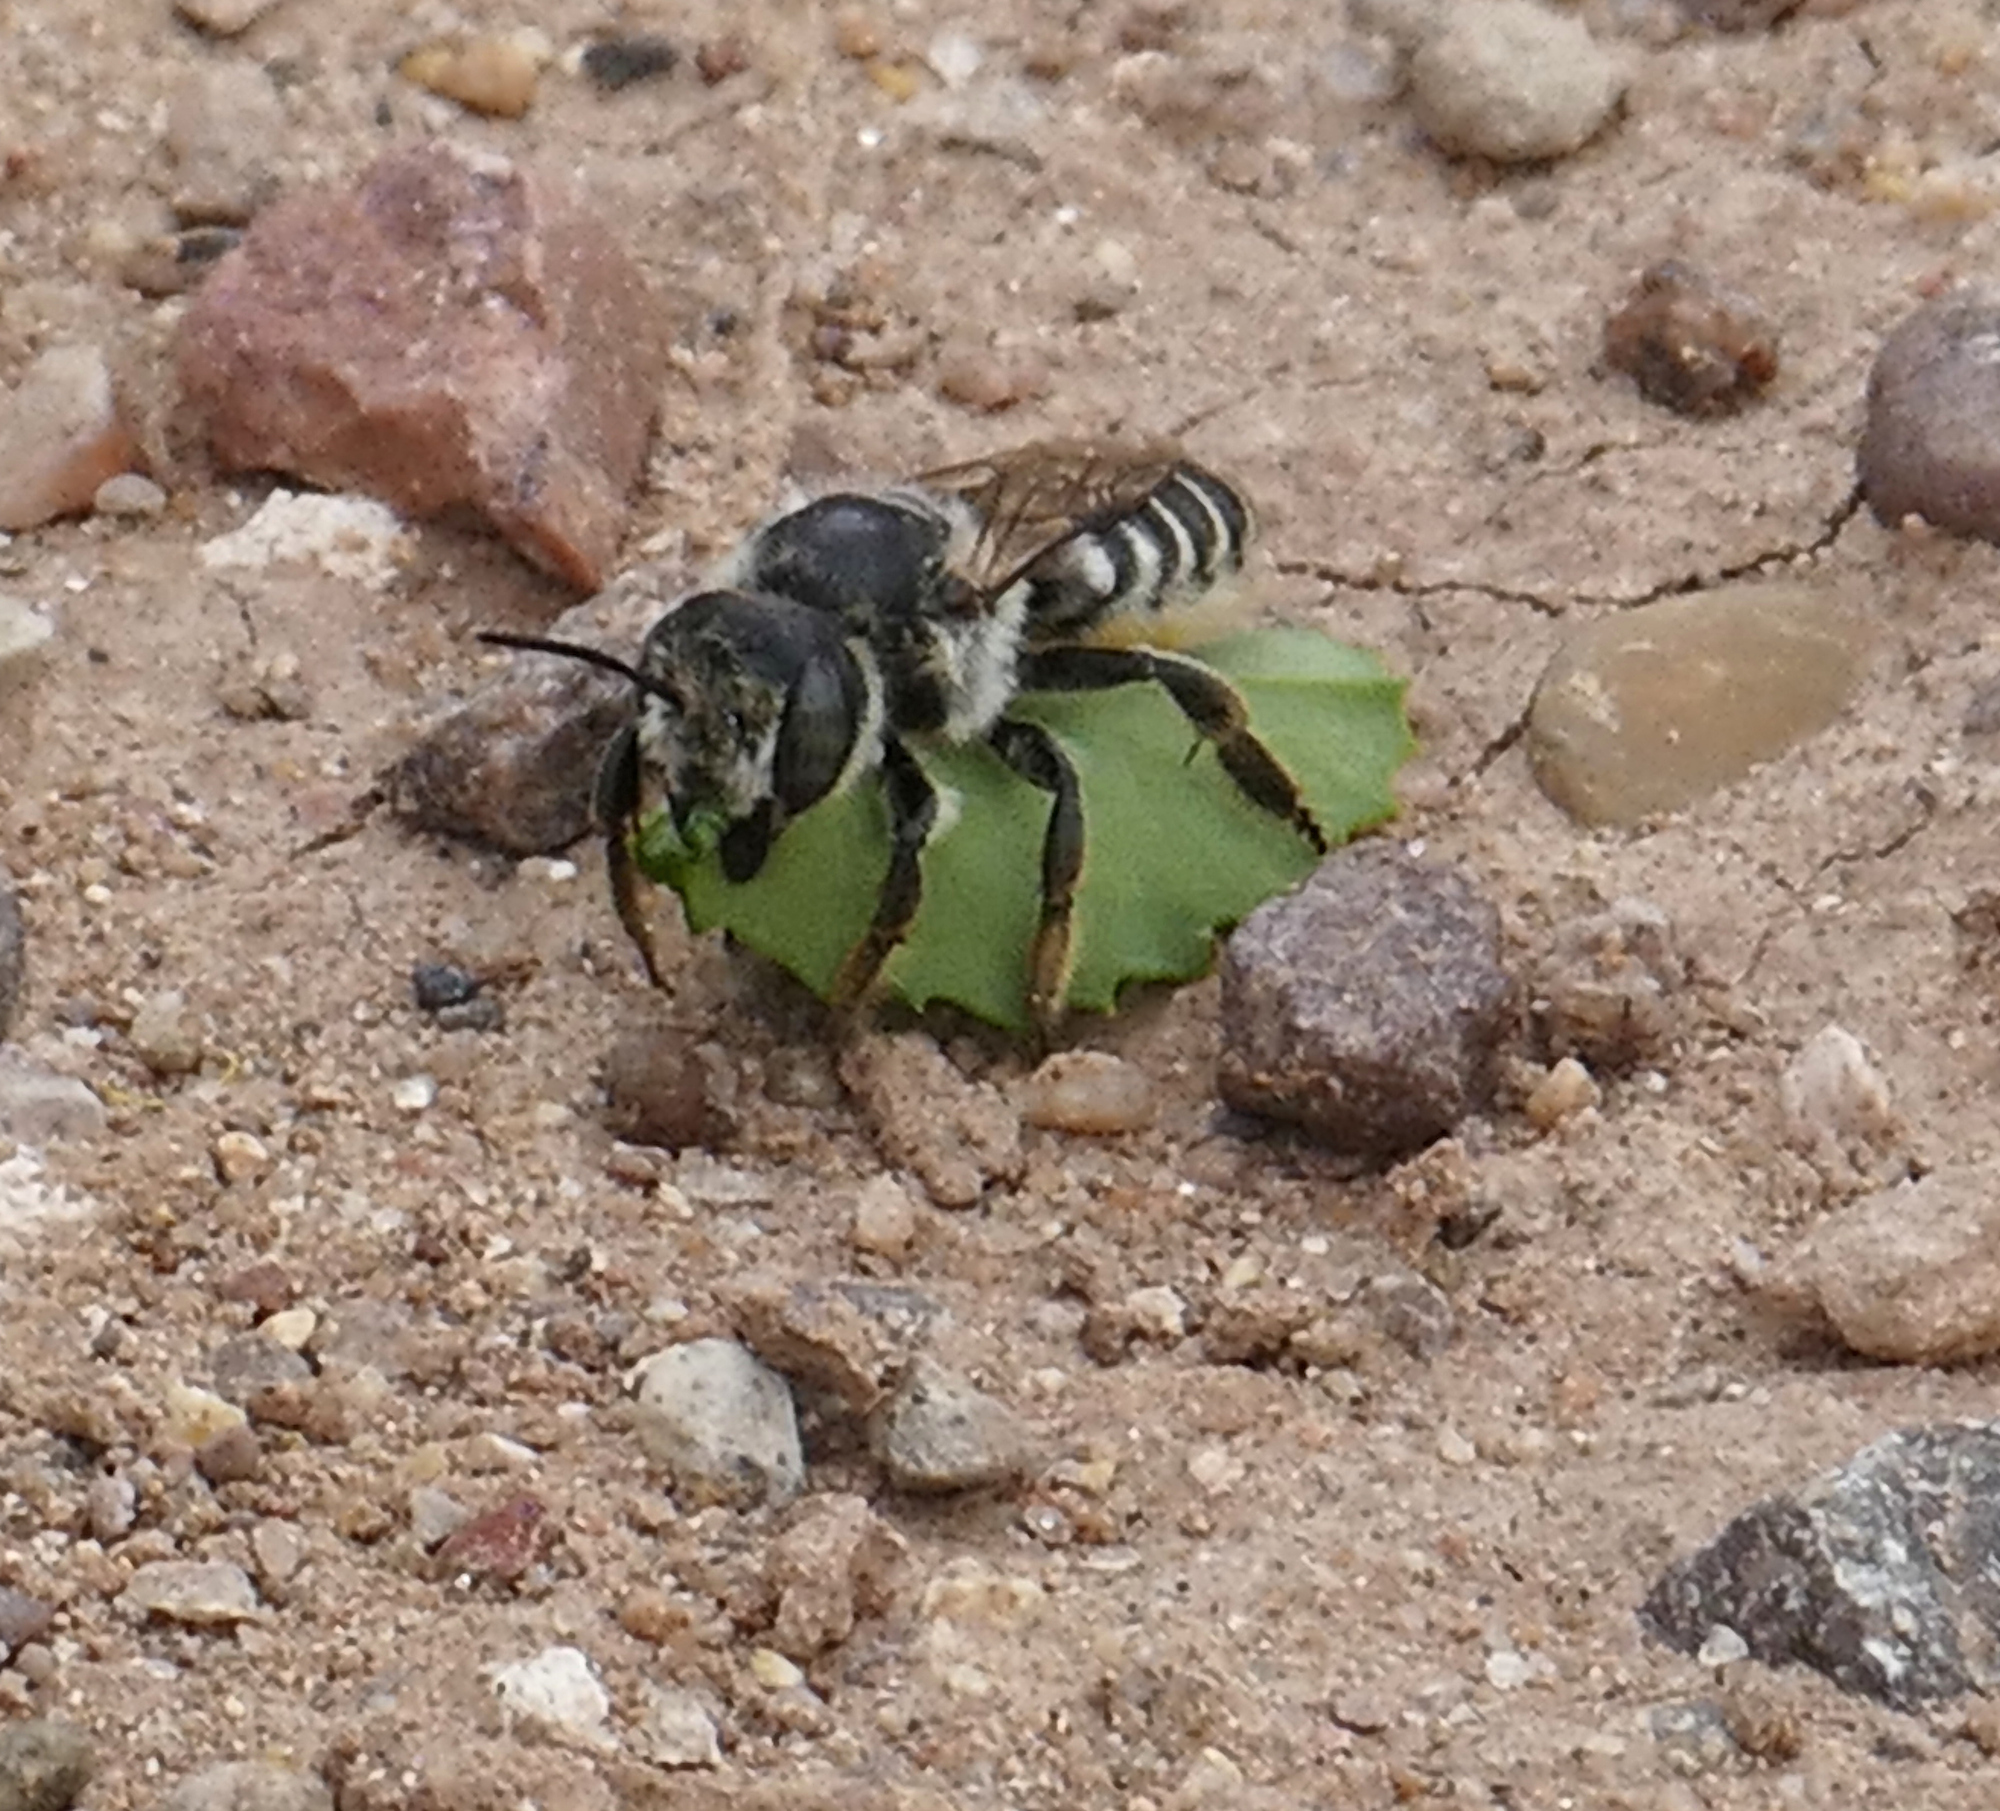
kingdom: Animalia
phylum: Arthropoda
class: Insecta
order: Hymenoptera
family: Megachilidae
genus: Megachile
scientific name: Megachile
